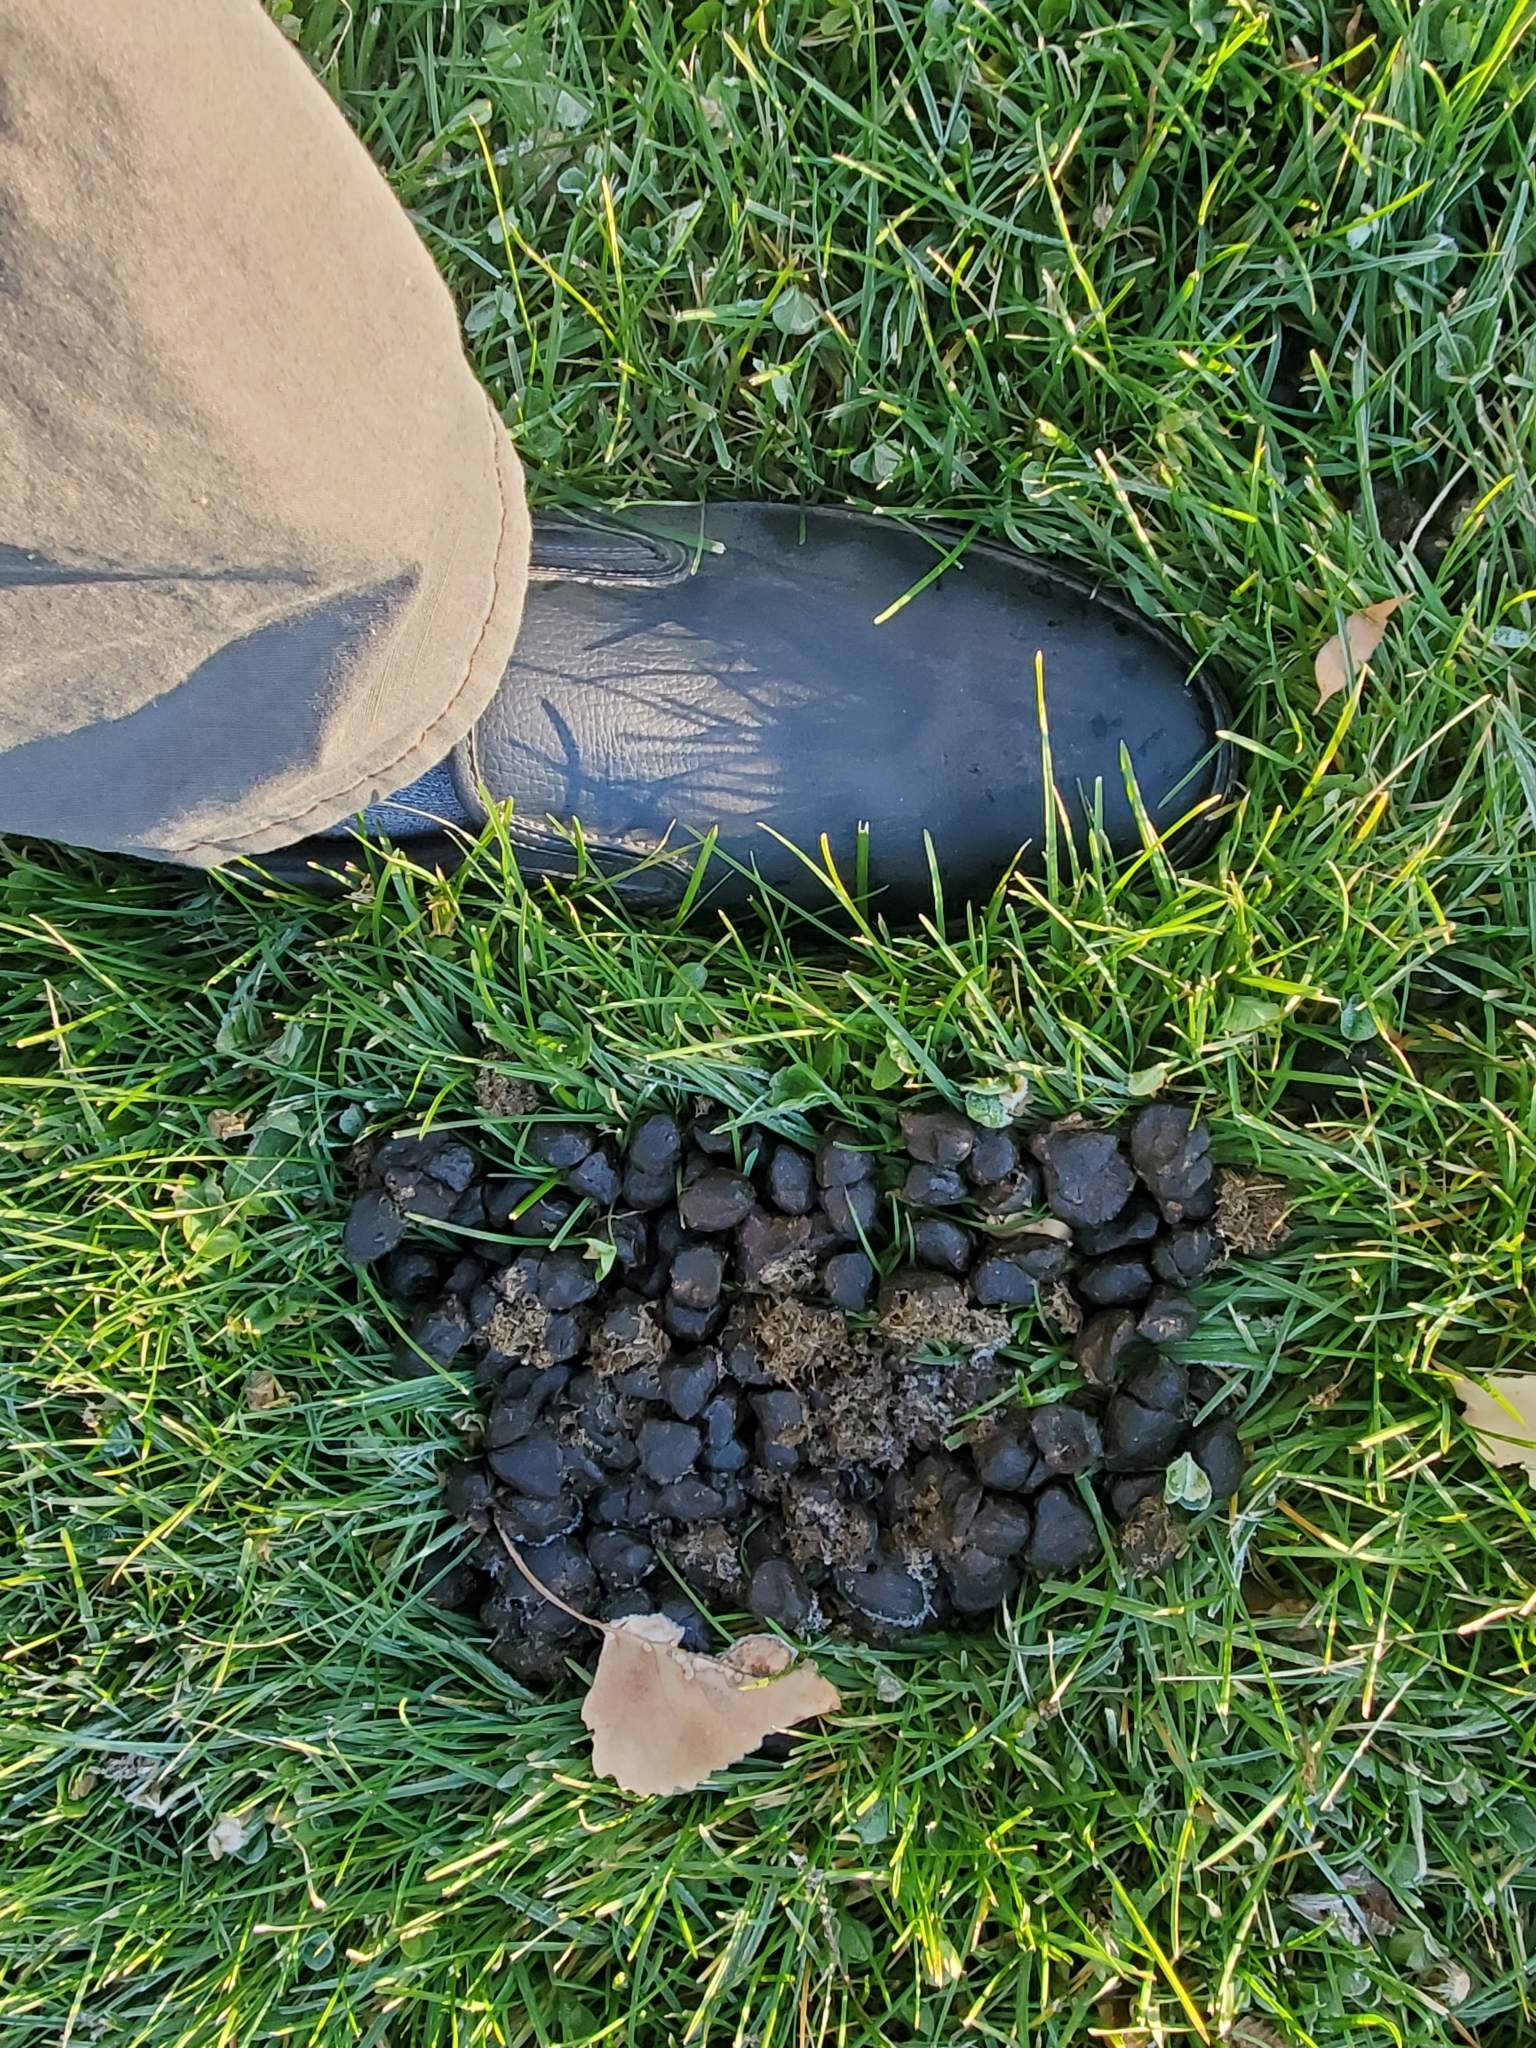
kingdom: Animalia
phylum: Chordata
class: Mammalia
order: Artiodactyla
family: Cervidae
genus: Cervus
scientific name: Cervus elaphus
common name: Red deer
